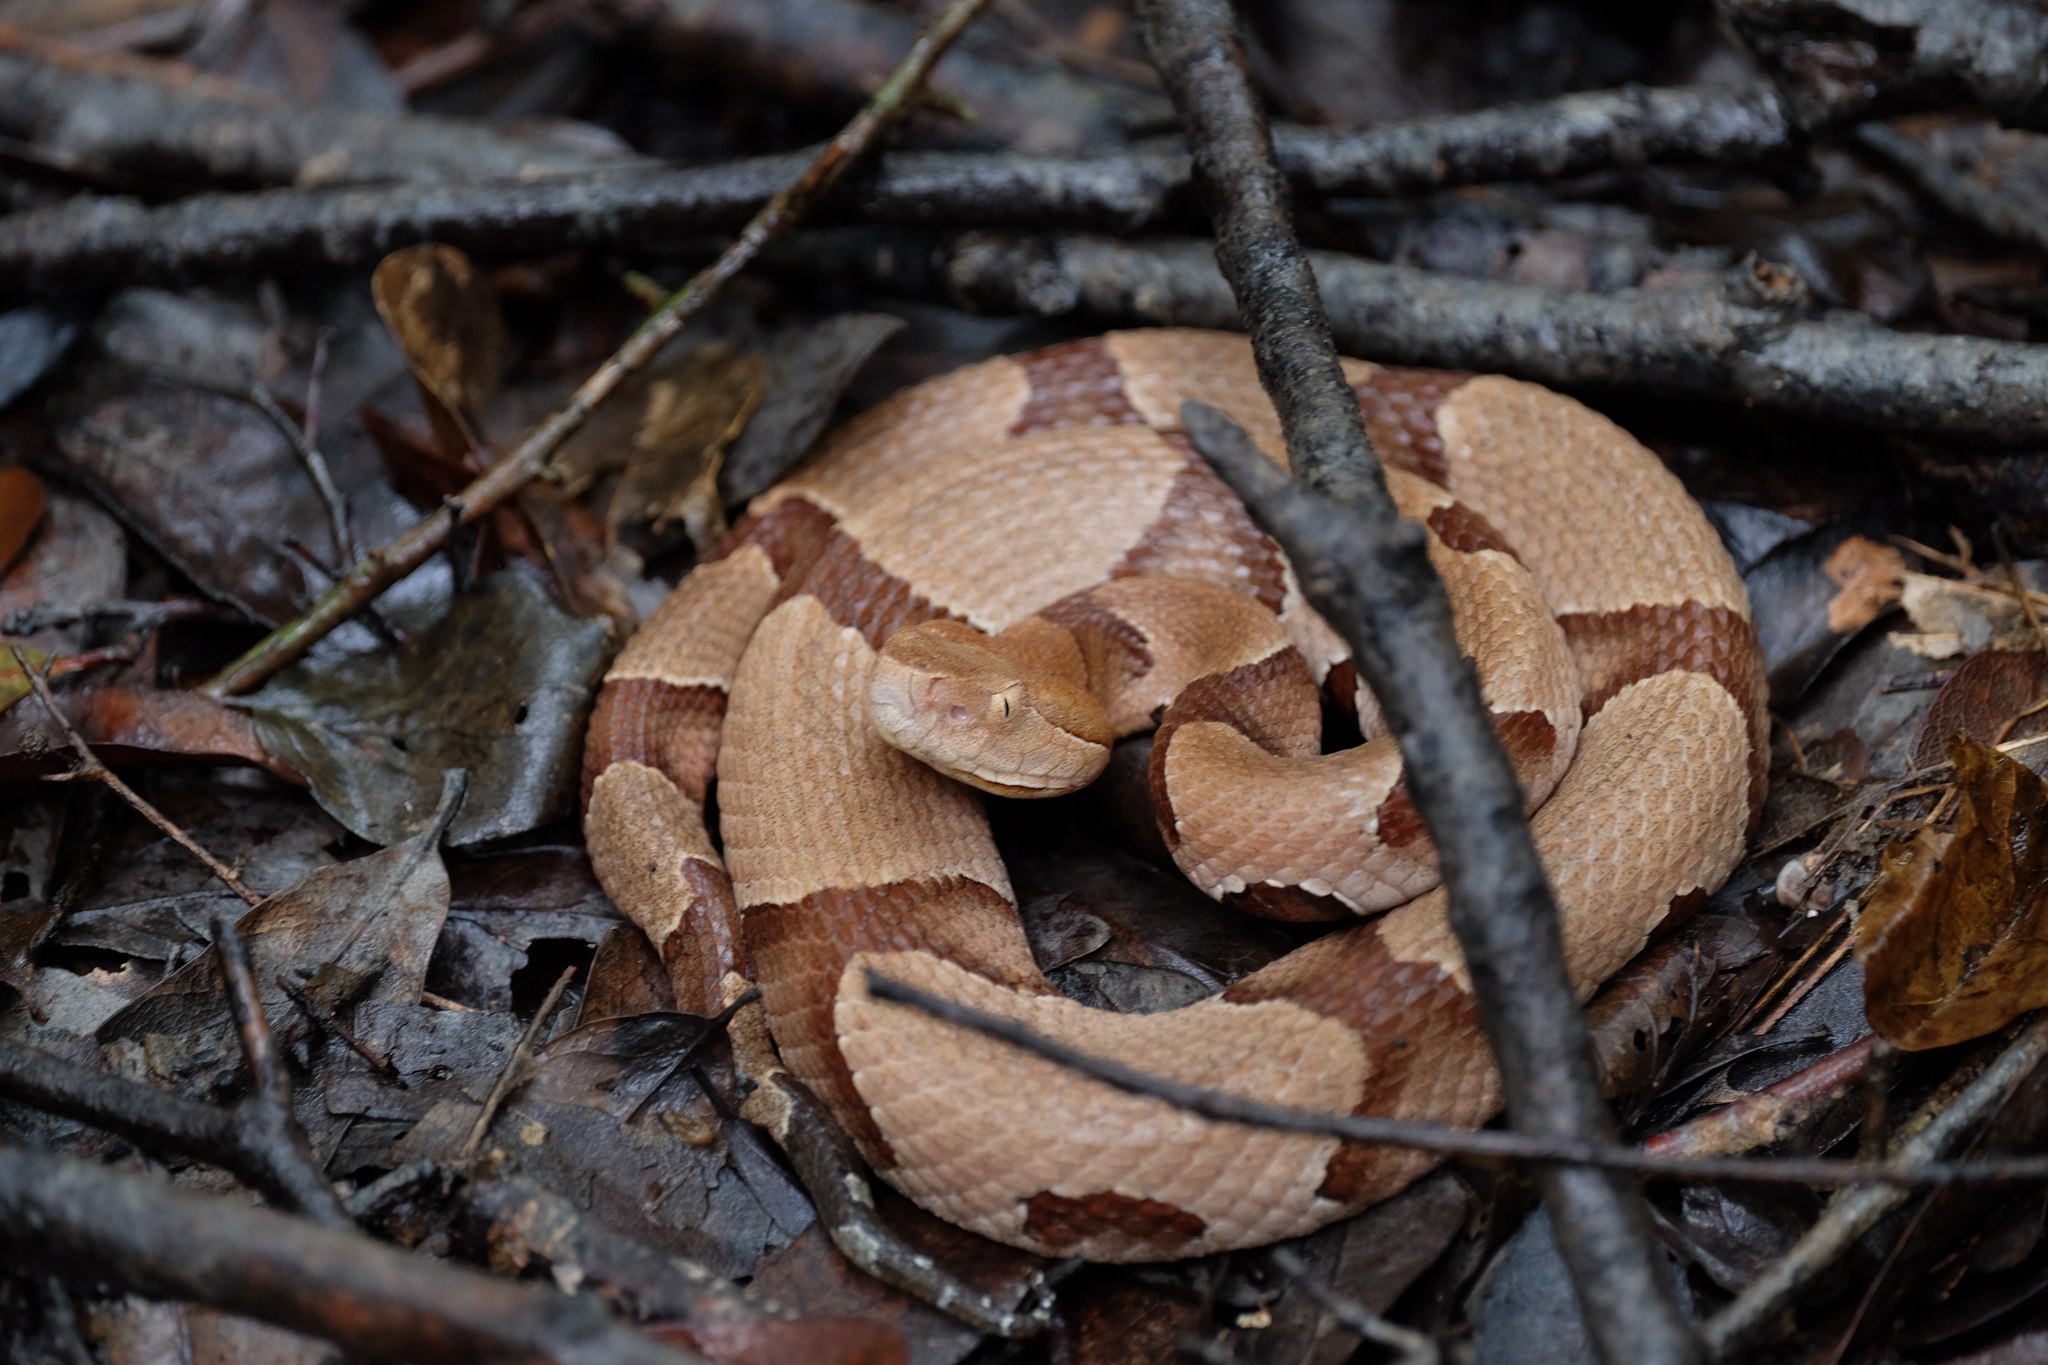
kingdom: Animalia
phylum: Chordata
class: Squamata
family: Viperidae
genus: Agkistrodon
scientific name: Agkistrodon contortrix
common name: Northern copperhead
